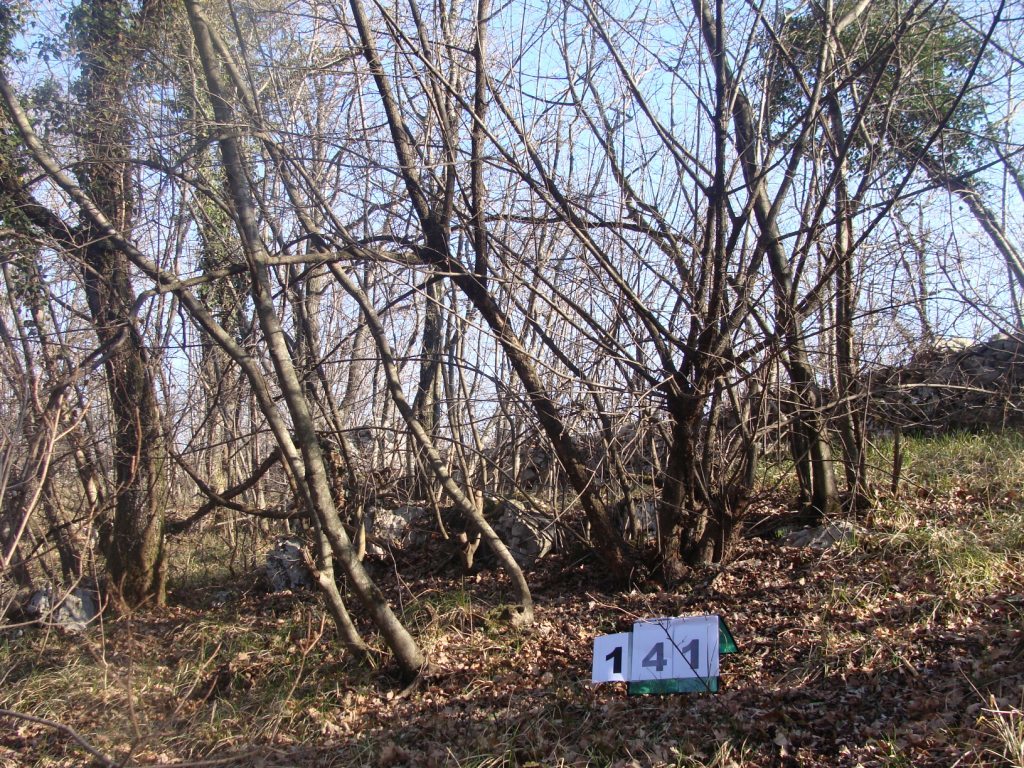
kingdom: Plantae
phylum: Tracheophyta
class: Magnoliopsida
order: Cornales
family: Cornaceae
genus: Cornus
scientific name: Cornus mas
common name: Cornelian-cherry
